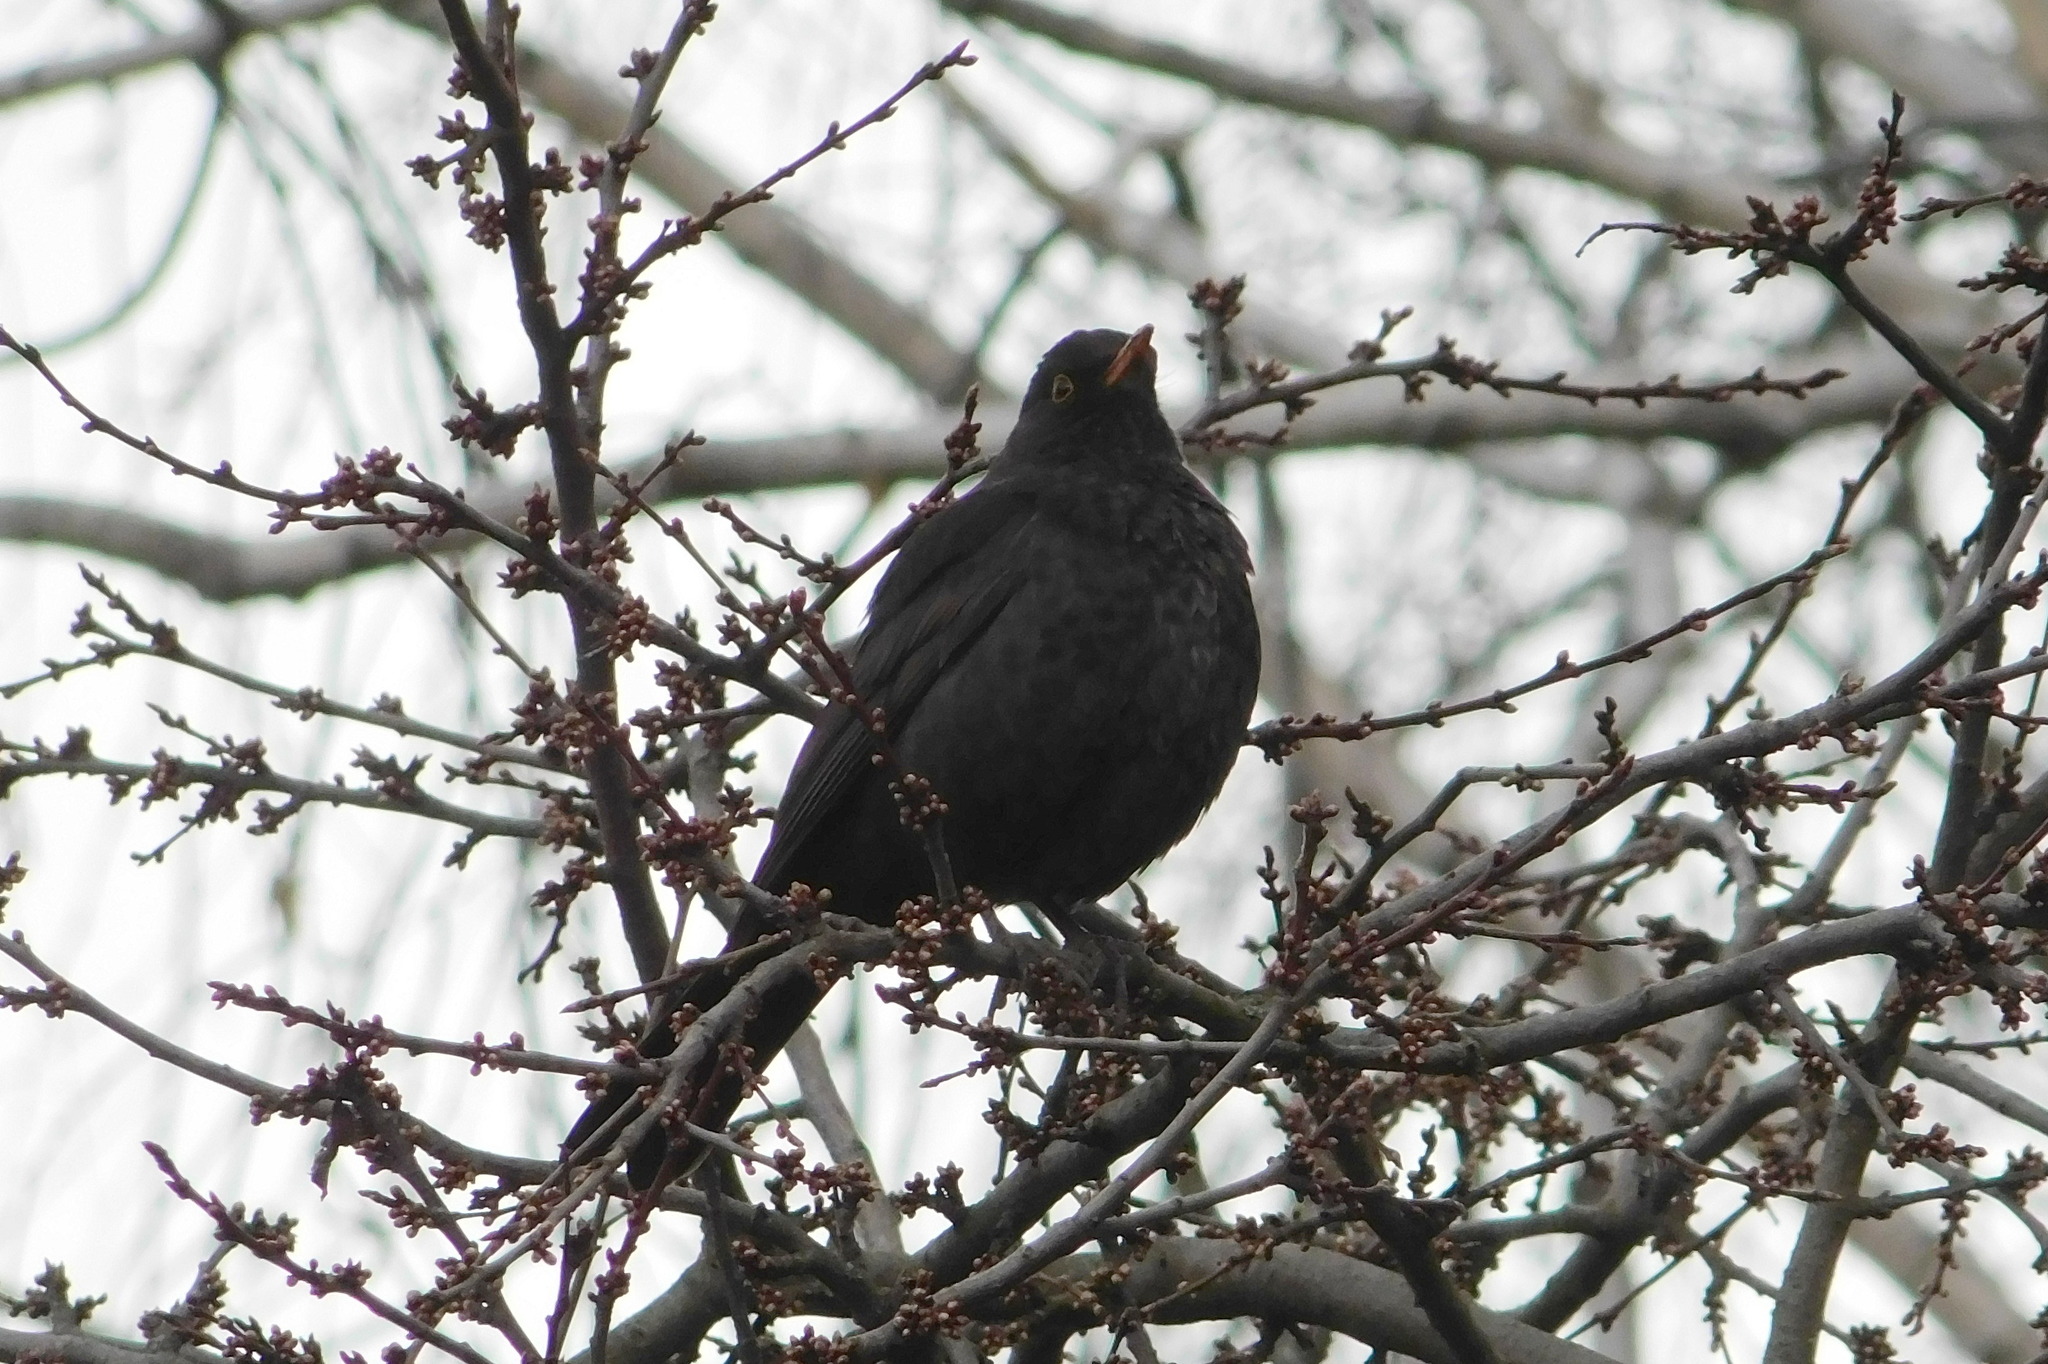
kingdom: Animalia
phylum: Chordata
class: Aves
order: Passeriformes
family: Turdidae
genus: Turdus
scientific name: Turdus merula
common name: Common blackbird
